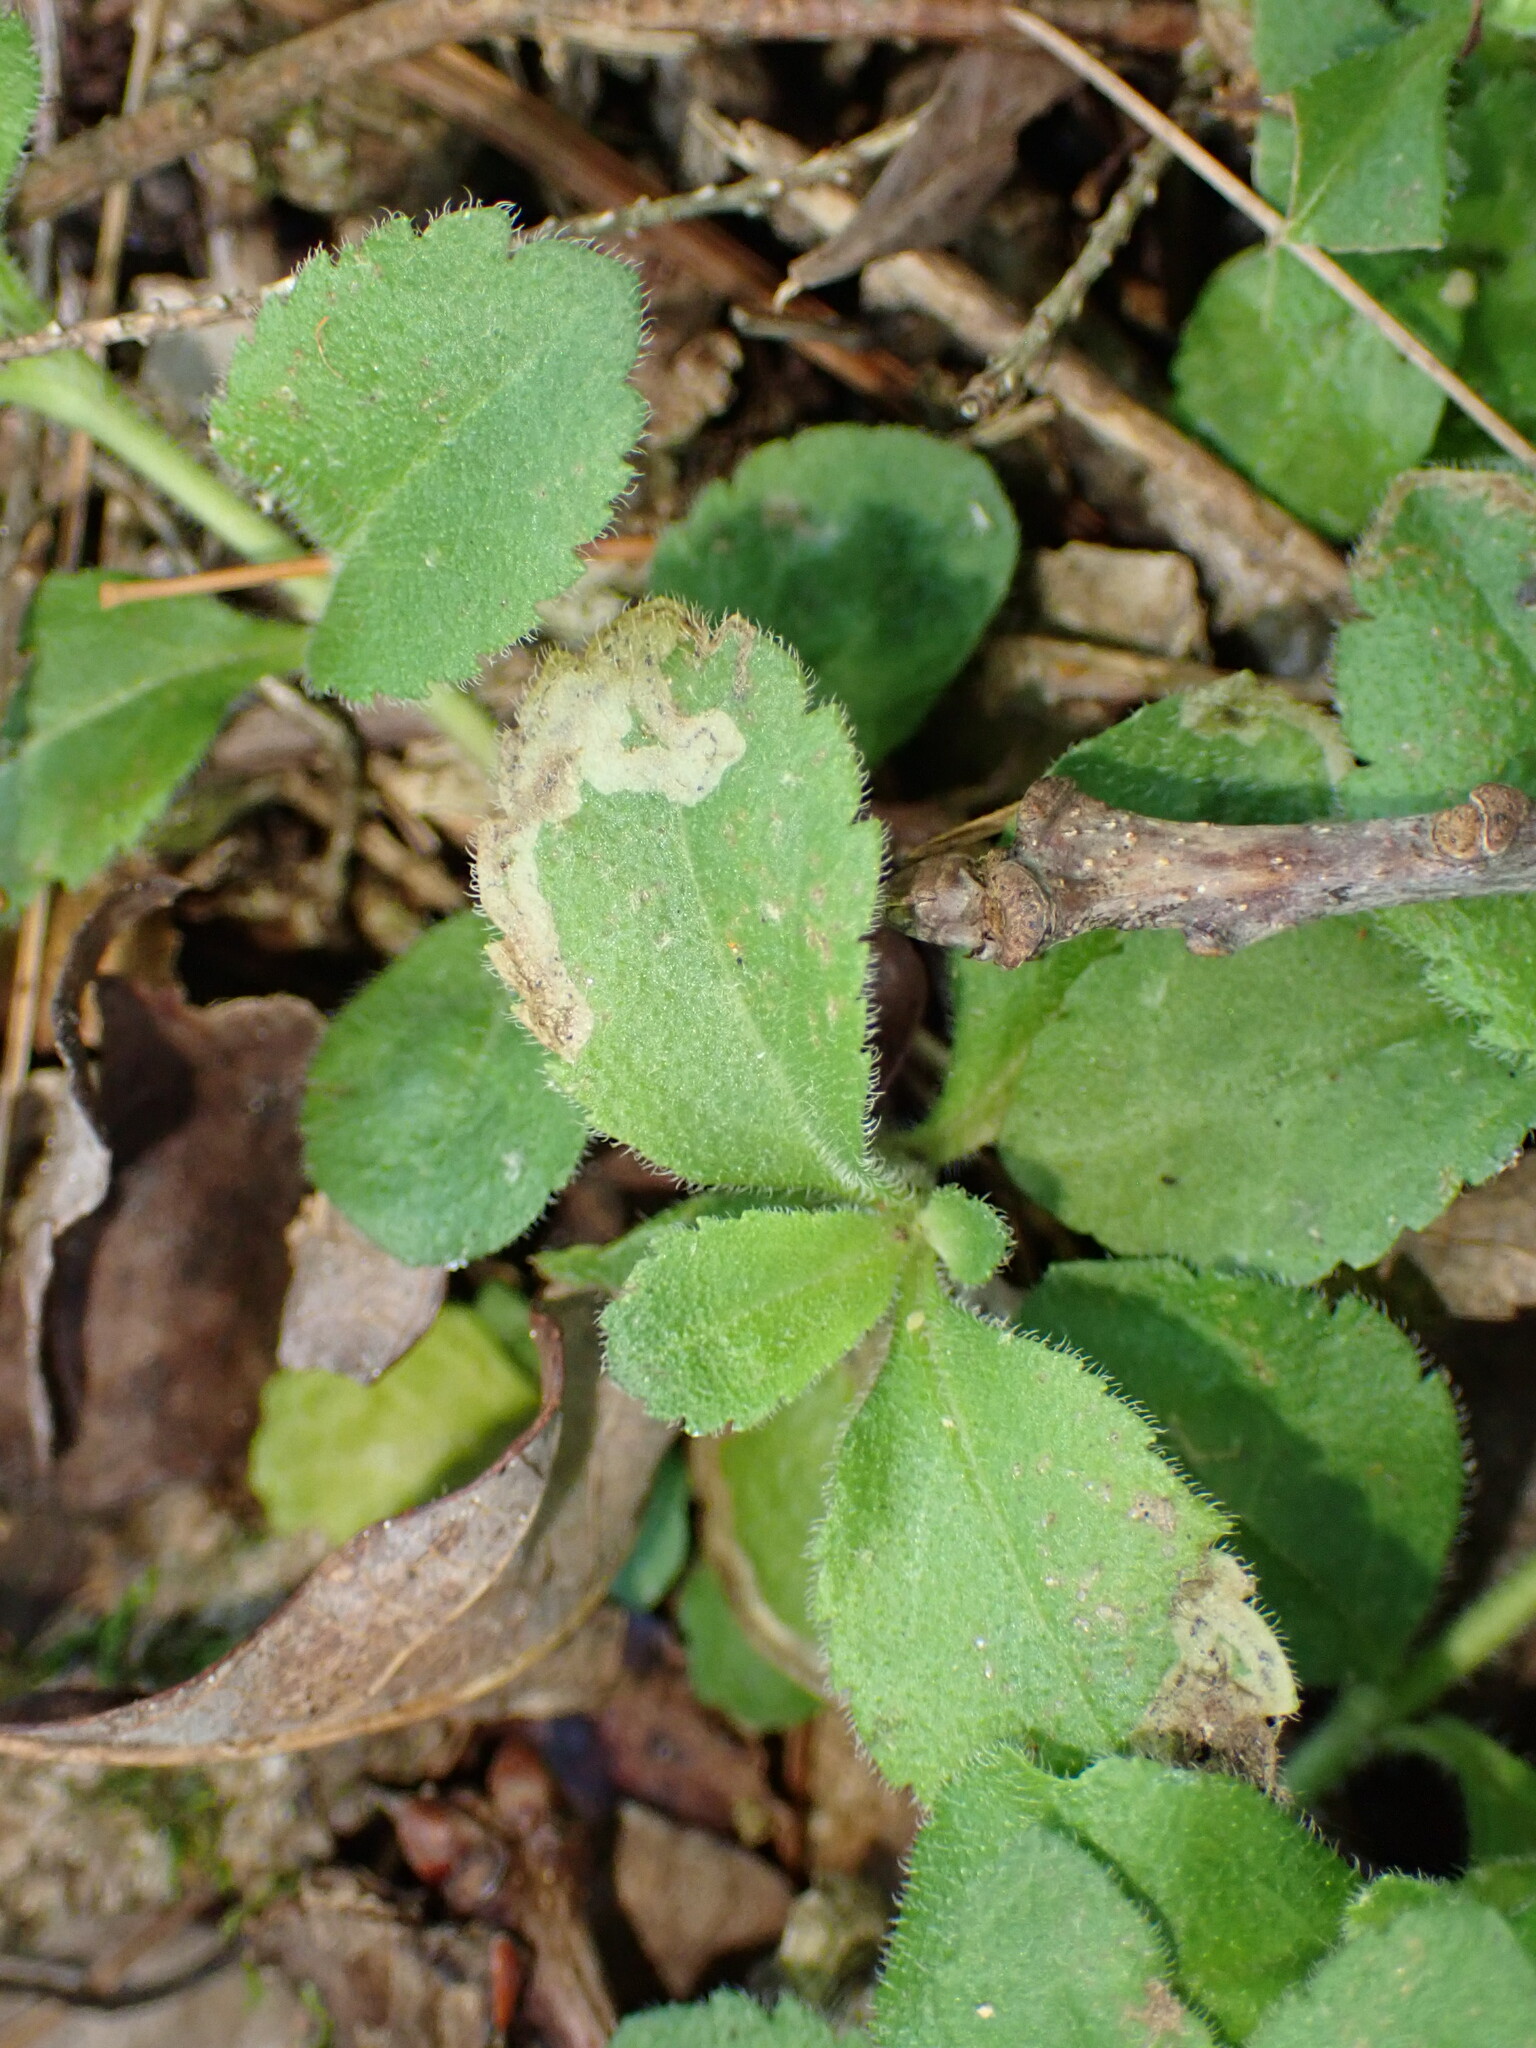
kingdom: Animalia
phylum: Arthropoda
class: Insecta
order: Diptera
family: Agromyzidae
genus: Phytomyza
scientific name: Phytomyza crassiseta
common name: Leaf-miner fly
